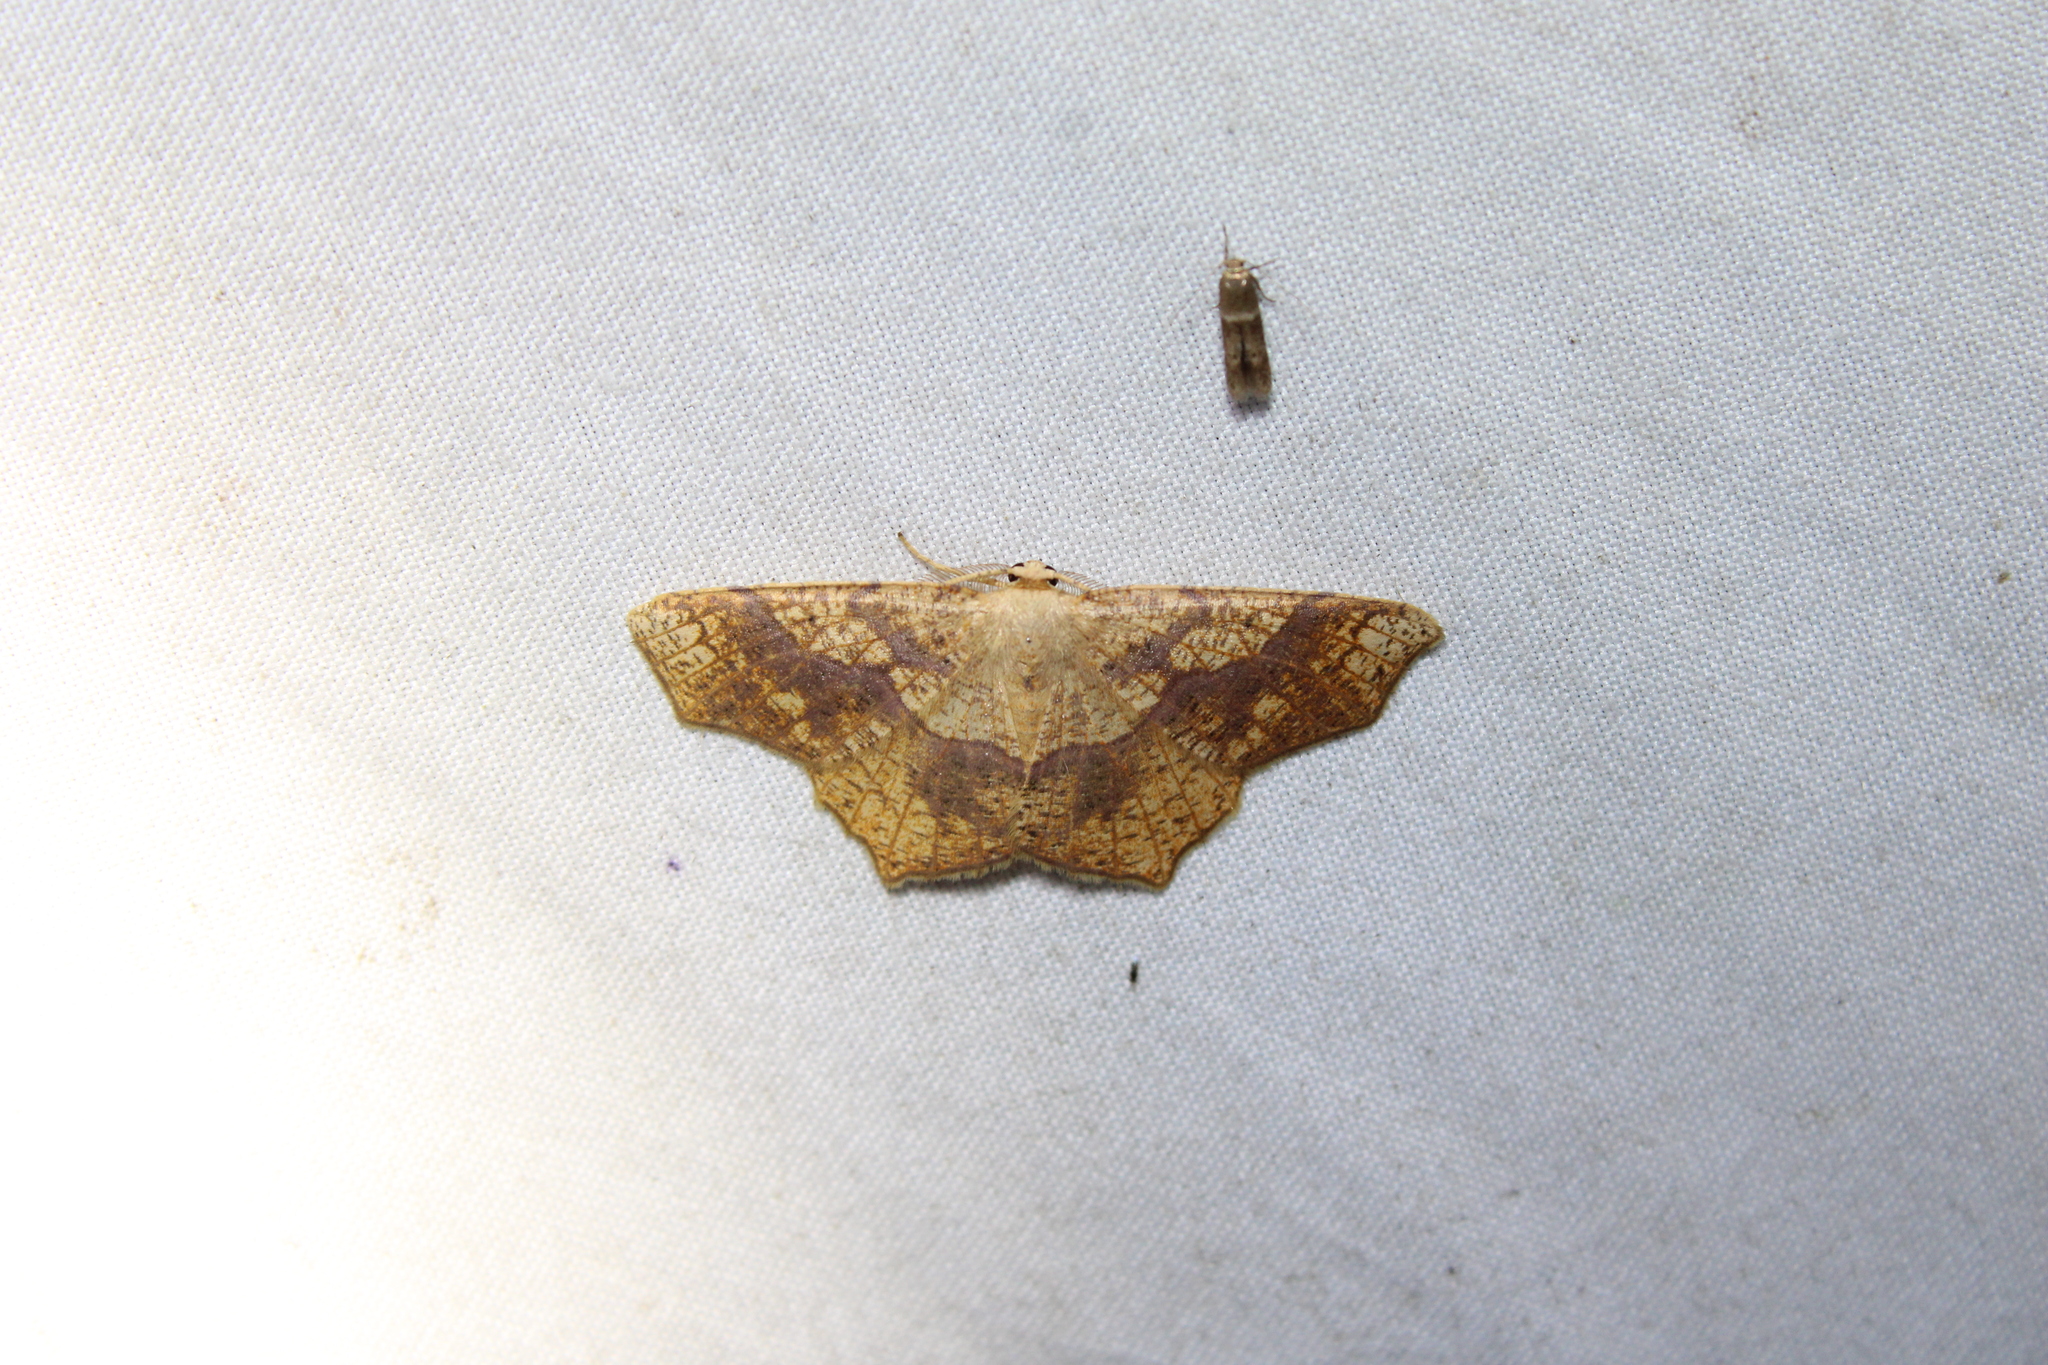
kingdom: Animalia
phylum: Arthropoda
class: Insecta
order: Lepidoptera
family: Geometridae
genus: Besma
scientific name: Besma quercivoraria
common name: Oak besma
